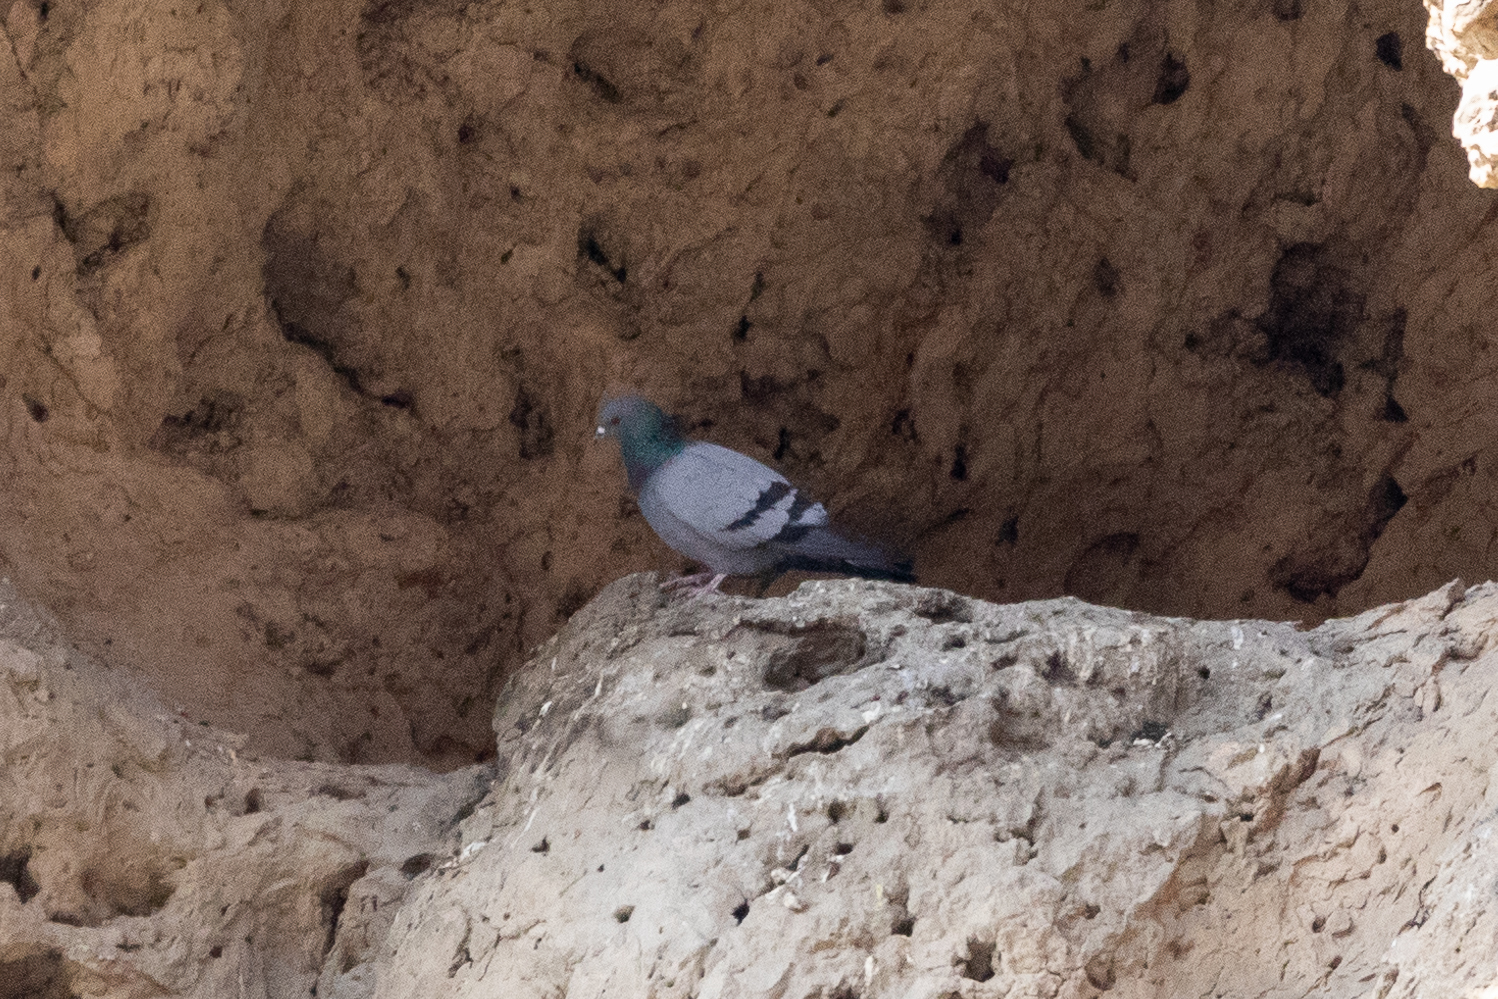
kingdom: Animalia
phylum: Chordata
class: Aves
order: Columbiformes
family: Columbidae
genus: Columba
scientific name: Columba livia
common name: Rock pigeon
